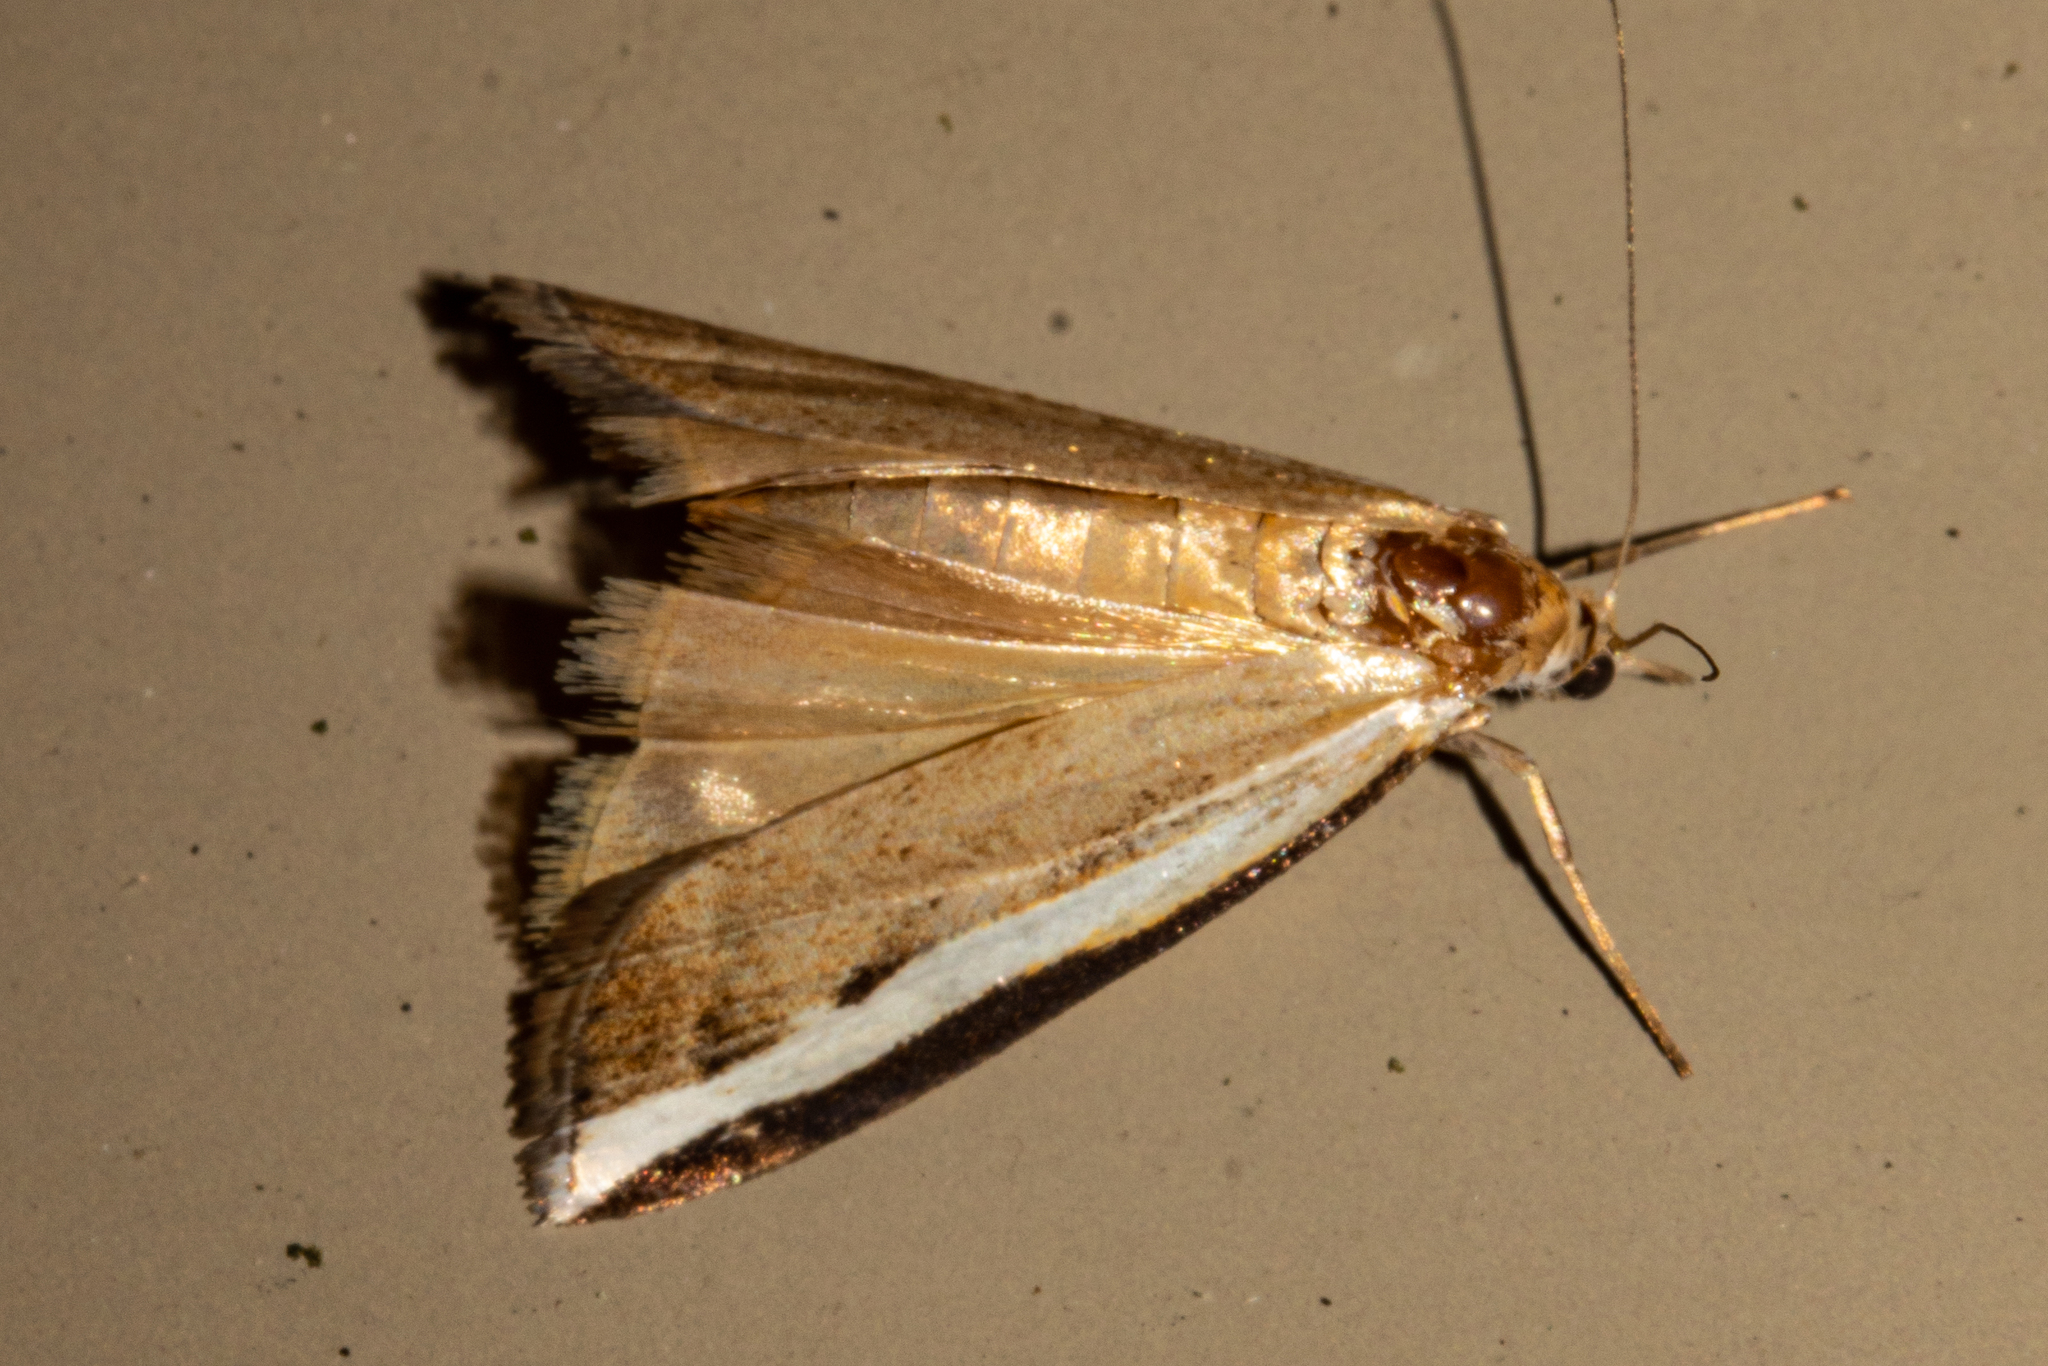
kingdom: Animalia
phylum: Arthropoda
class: Insecta
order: Lepidoptera
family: Crambidae
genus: Orocrambus
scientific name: Orocrambus flexuosellus
